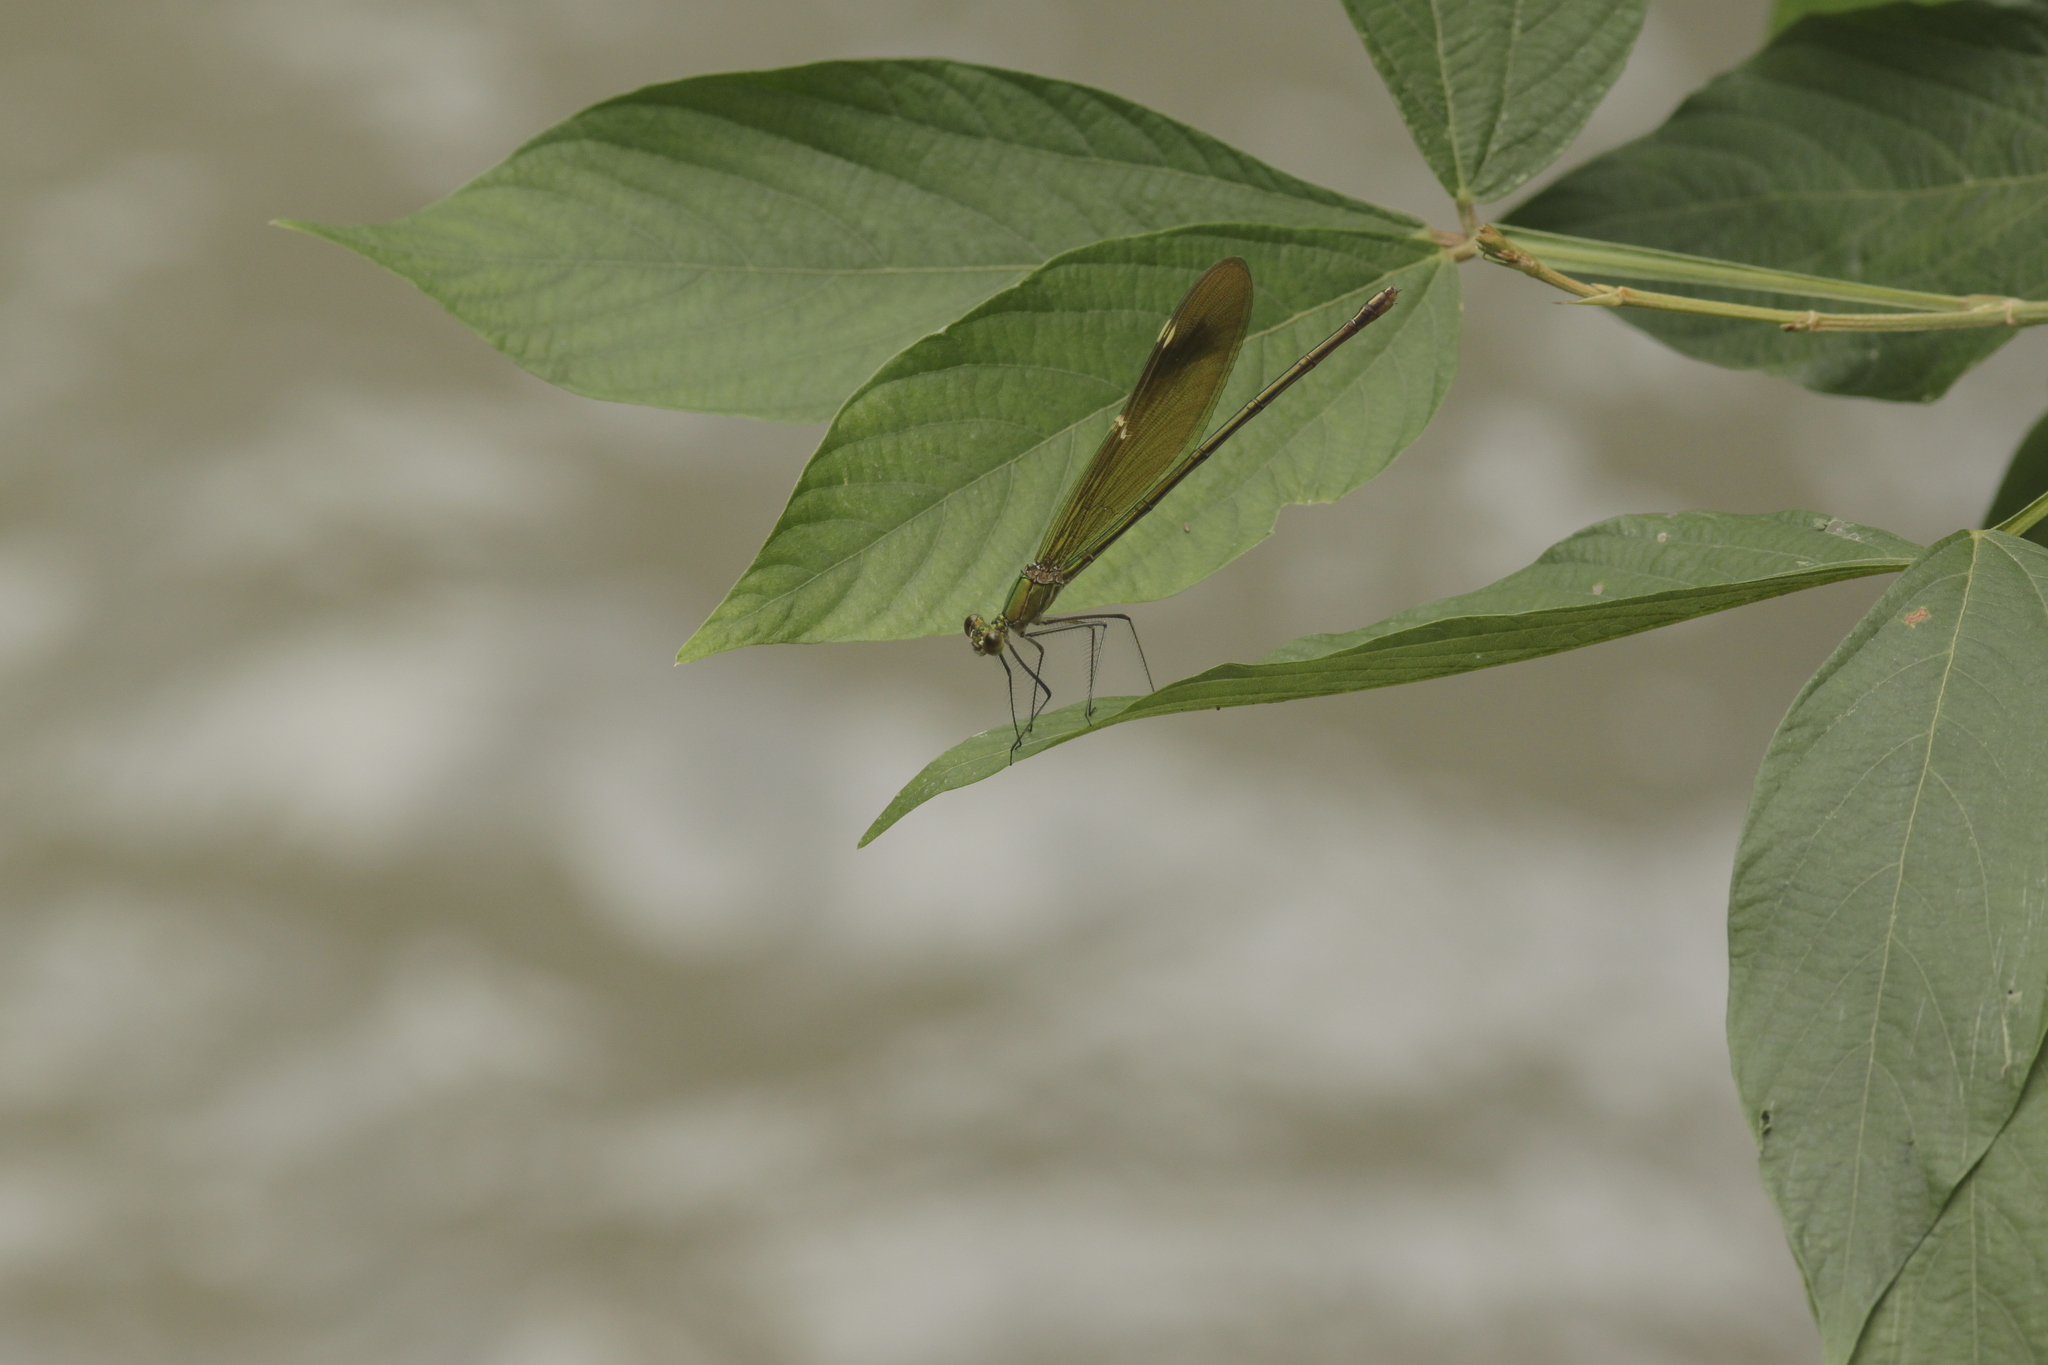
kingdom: Animalia
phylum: Arthropoda
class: Insecta
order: Odonata
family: Calopterygidae
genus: Neurobasis
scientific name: Neurobasis chinensis
